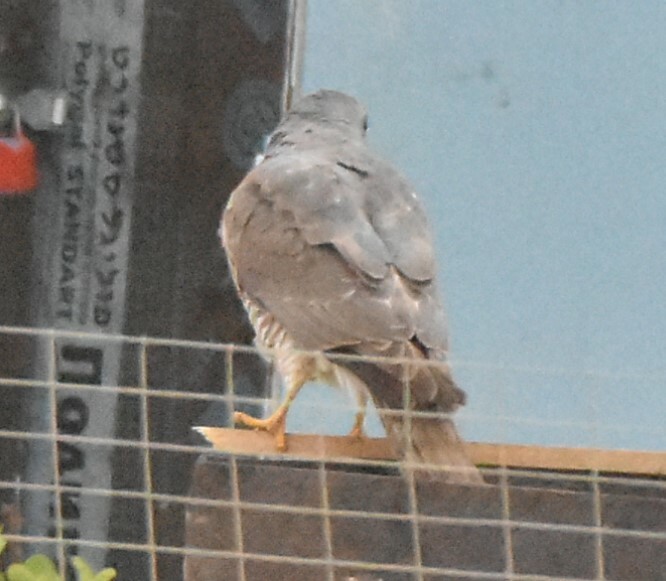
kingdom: Animalia
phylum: Chordata
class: Aves
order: Accipitriformes
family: Accipitridae
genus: Accipiter
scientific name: Accipiter brevipes
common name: Levant sparrowhawk
